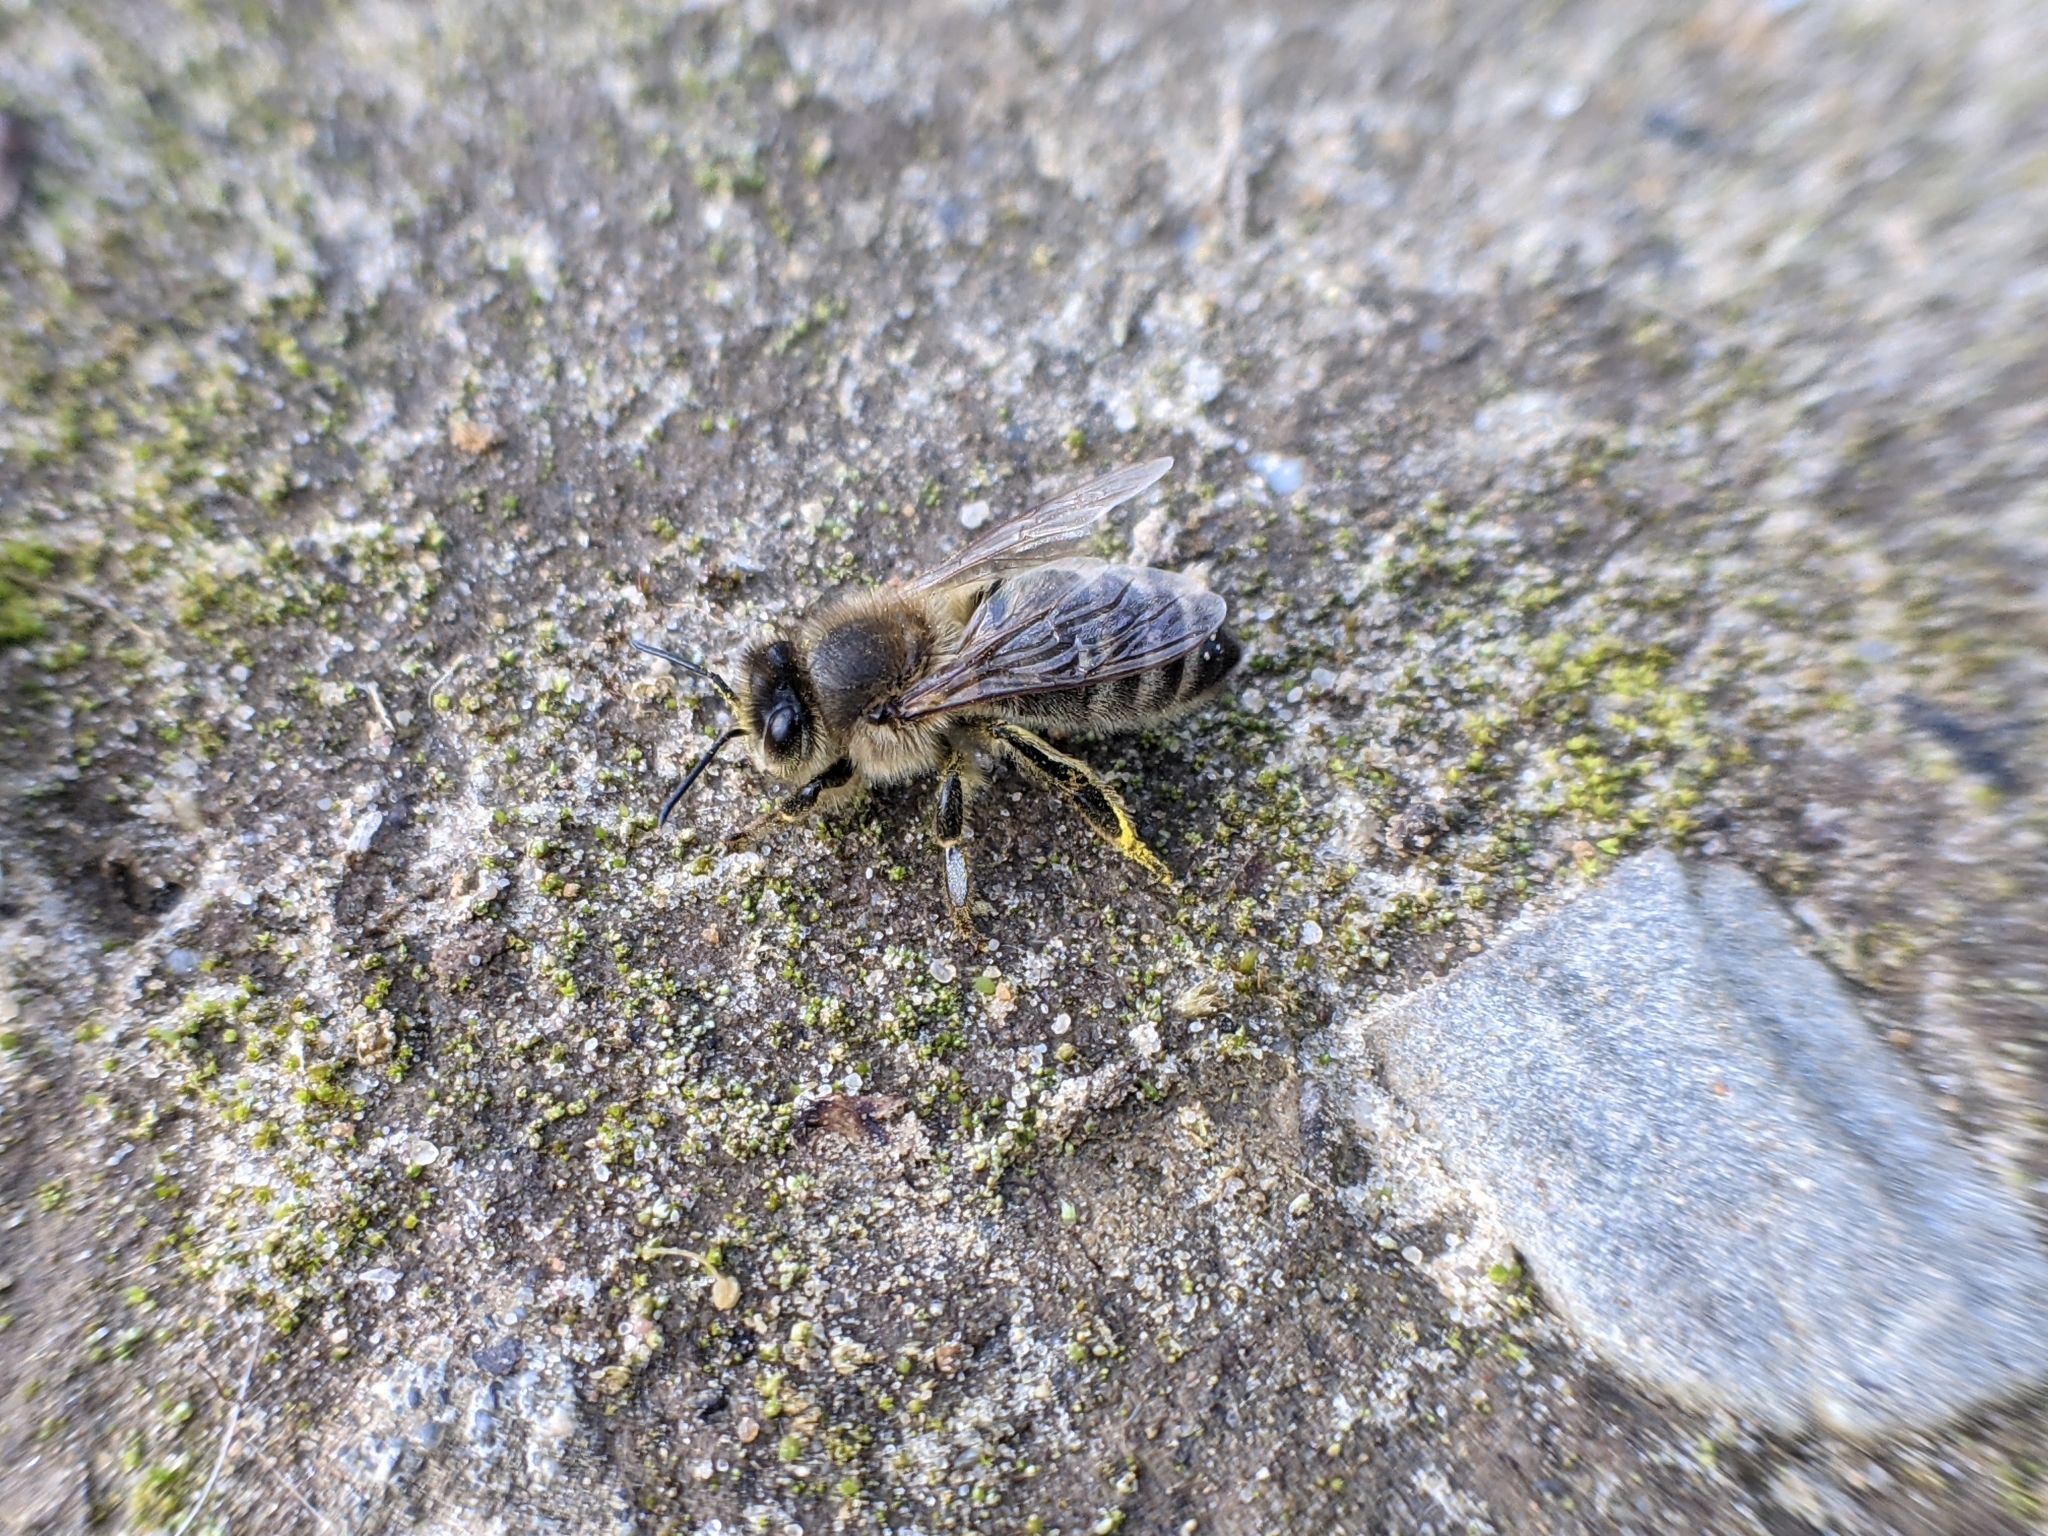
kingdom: Animalia
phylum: Arthropoda
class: Insecta
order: Hymenoptera
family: Apidae
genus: Apis
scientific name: Apis mellifera
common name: Honey bee
